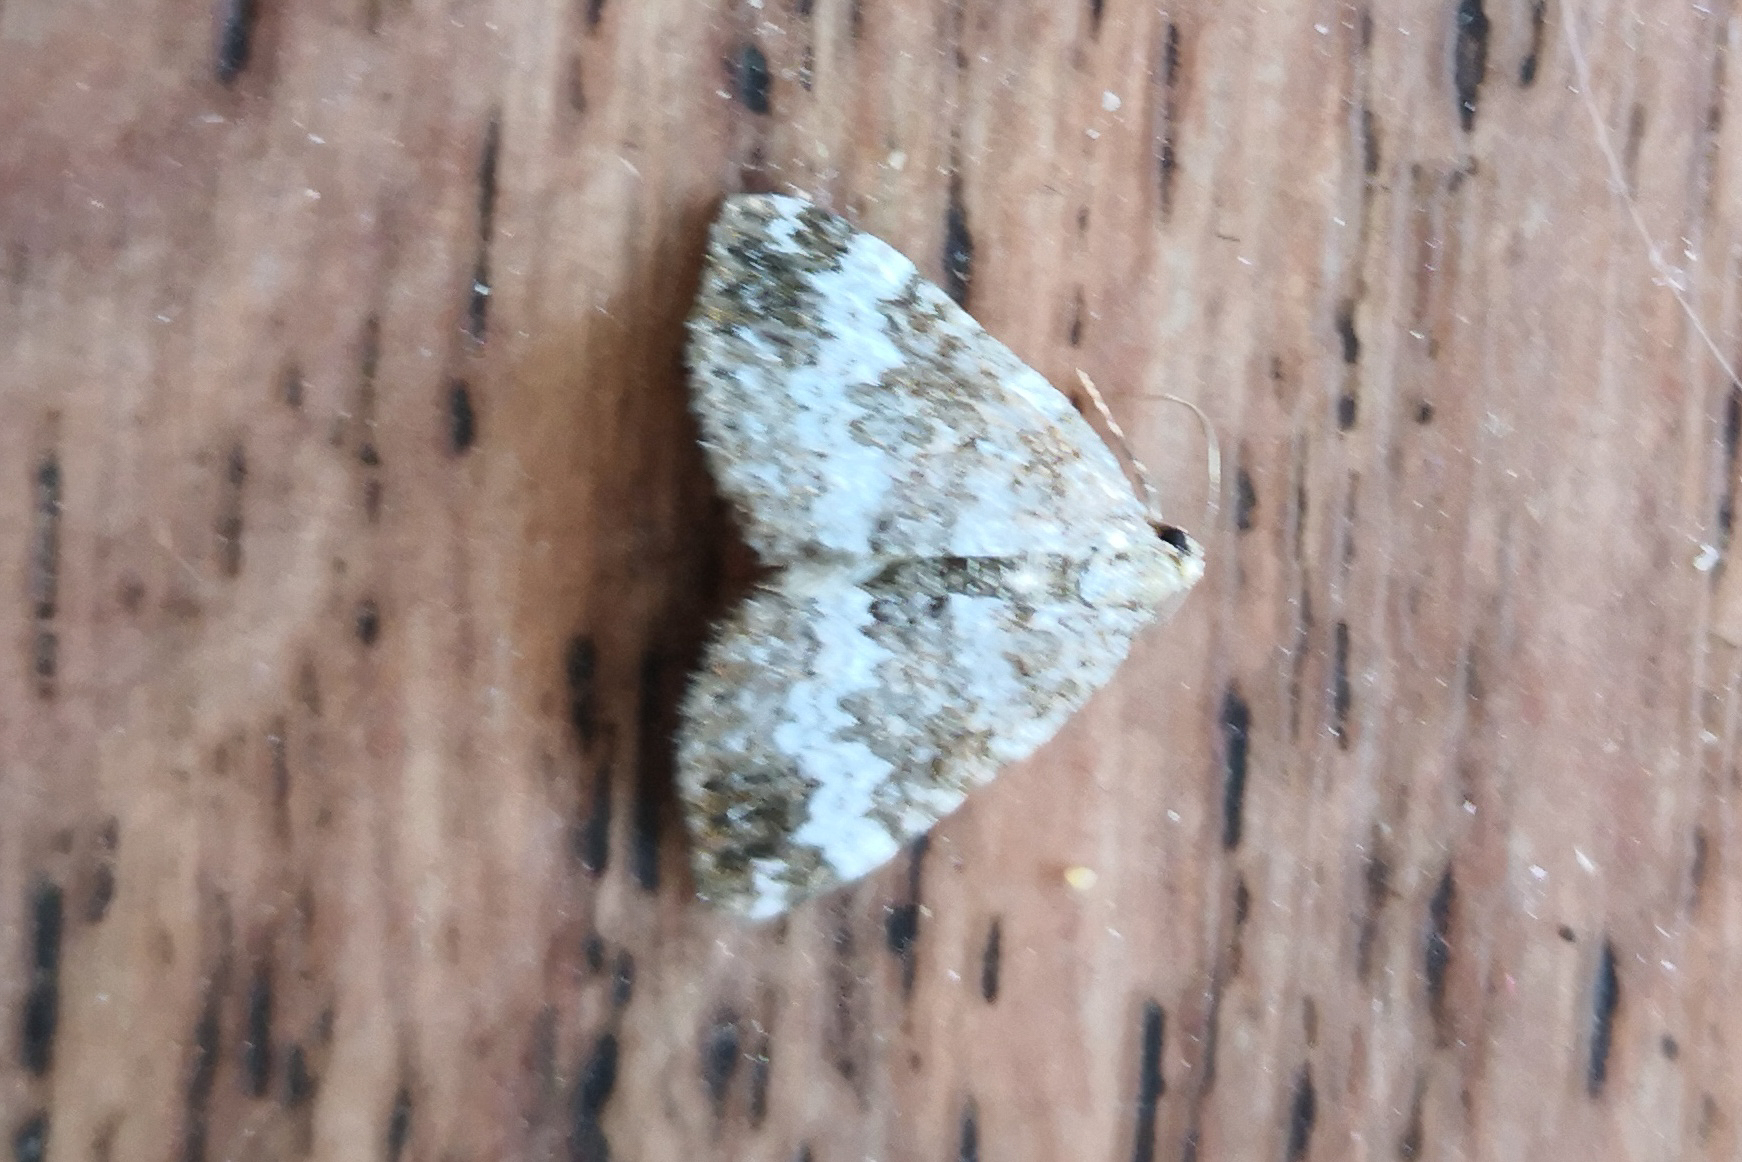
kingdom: Animalia
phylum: Arthropoda
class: Insecta
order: Lepidoptera
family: Geometridae
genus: Perizoma
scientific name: Perizoma alchemillata
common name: Small rivulet
